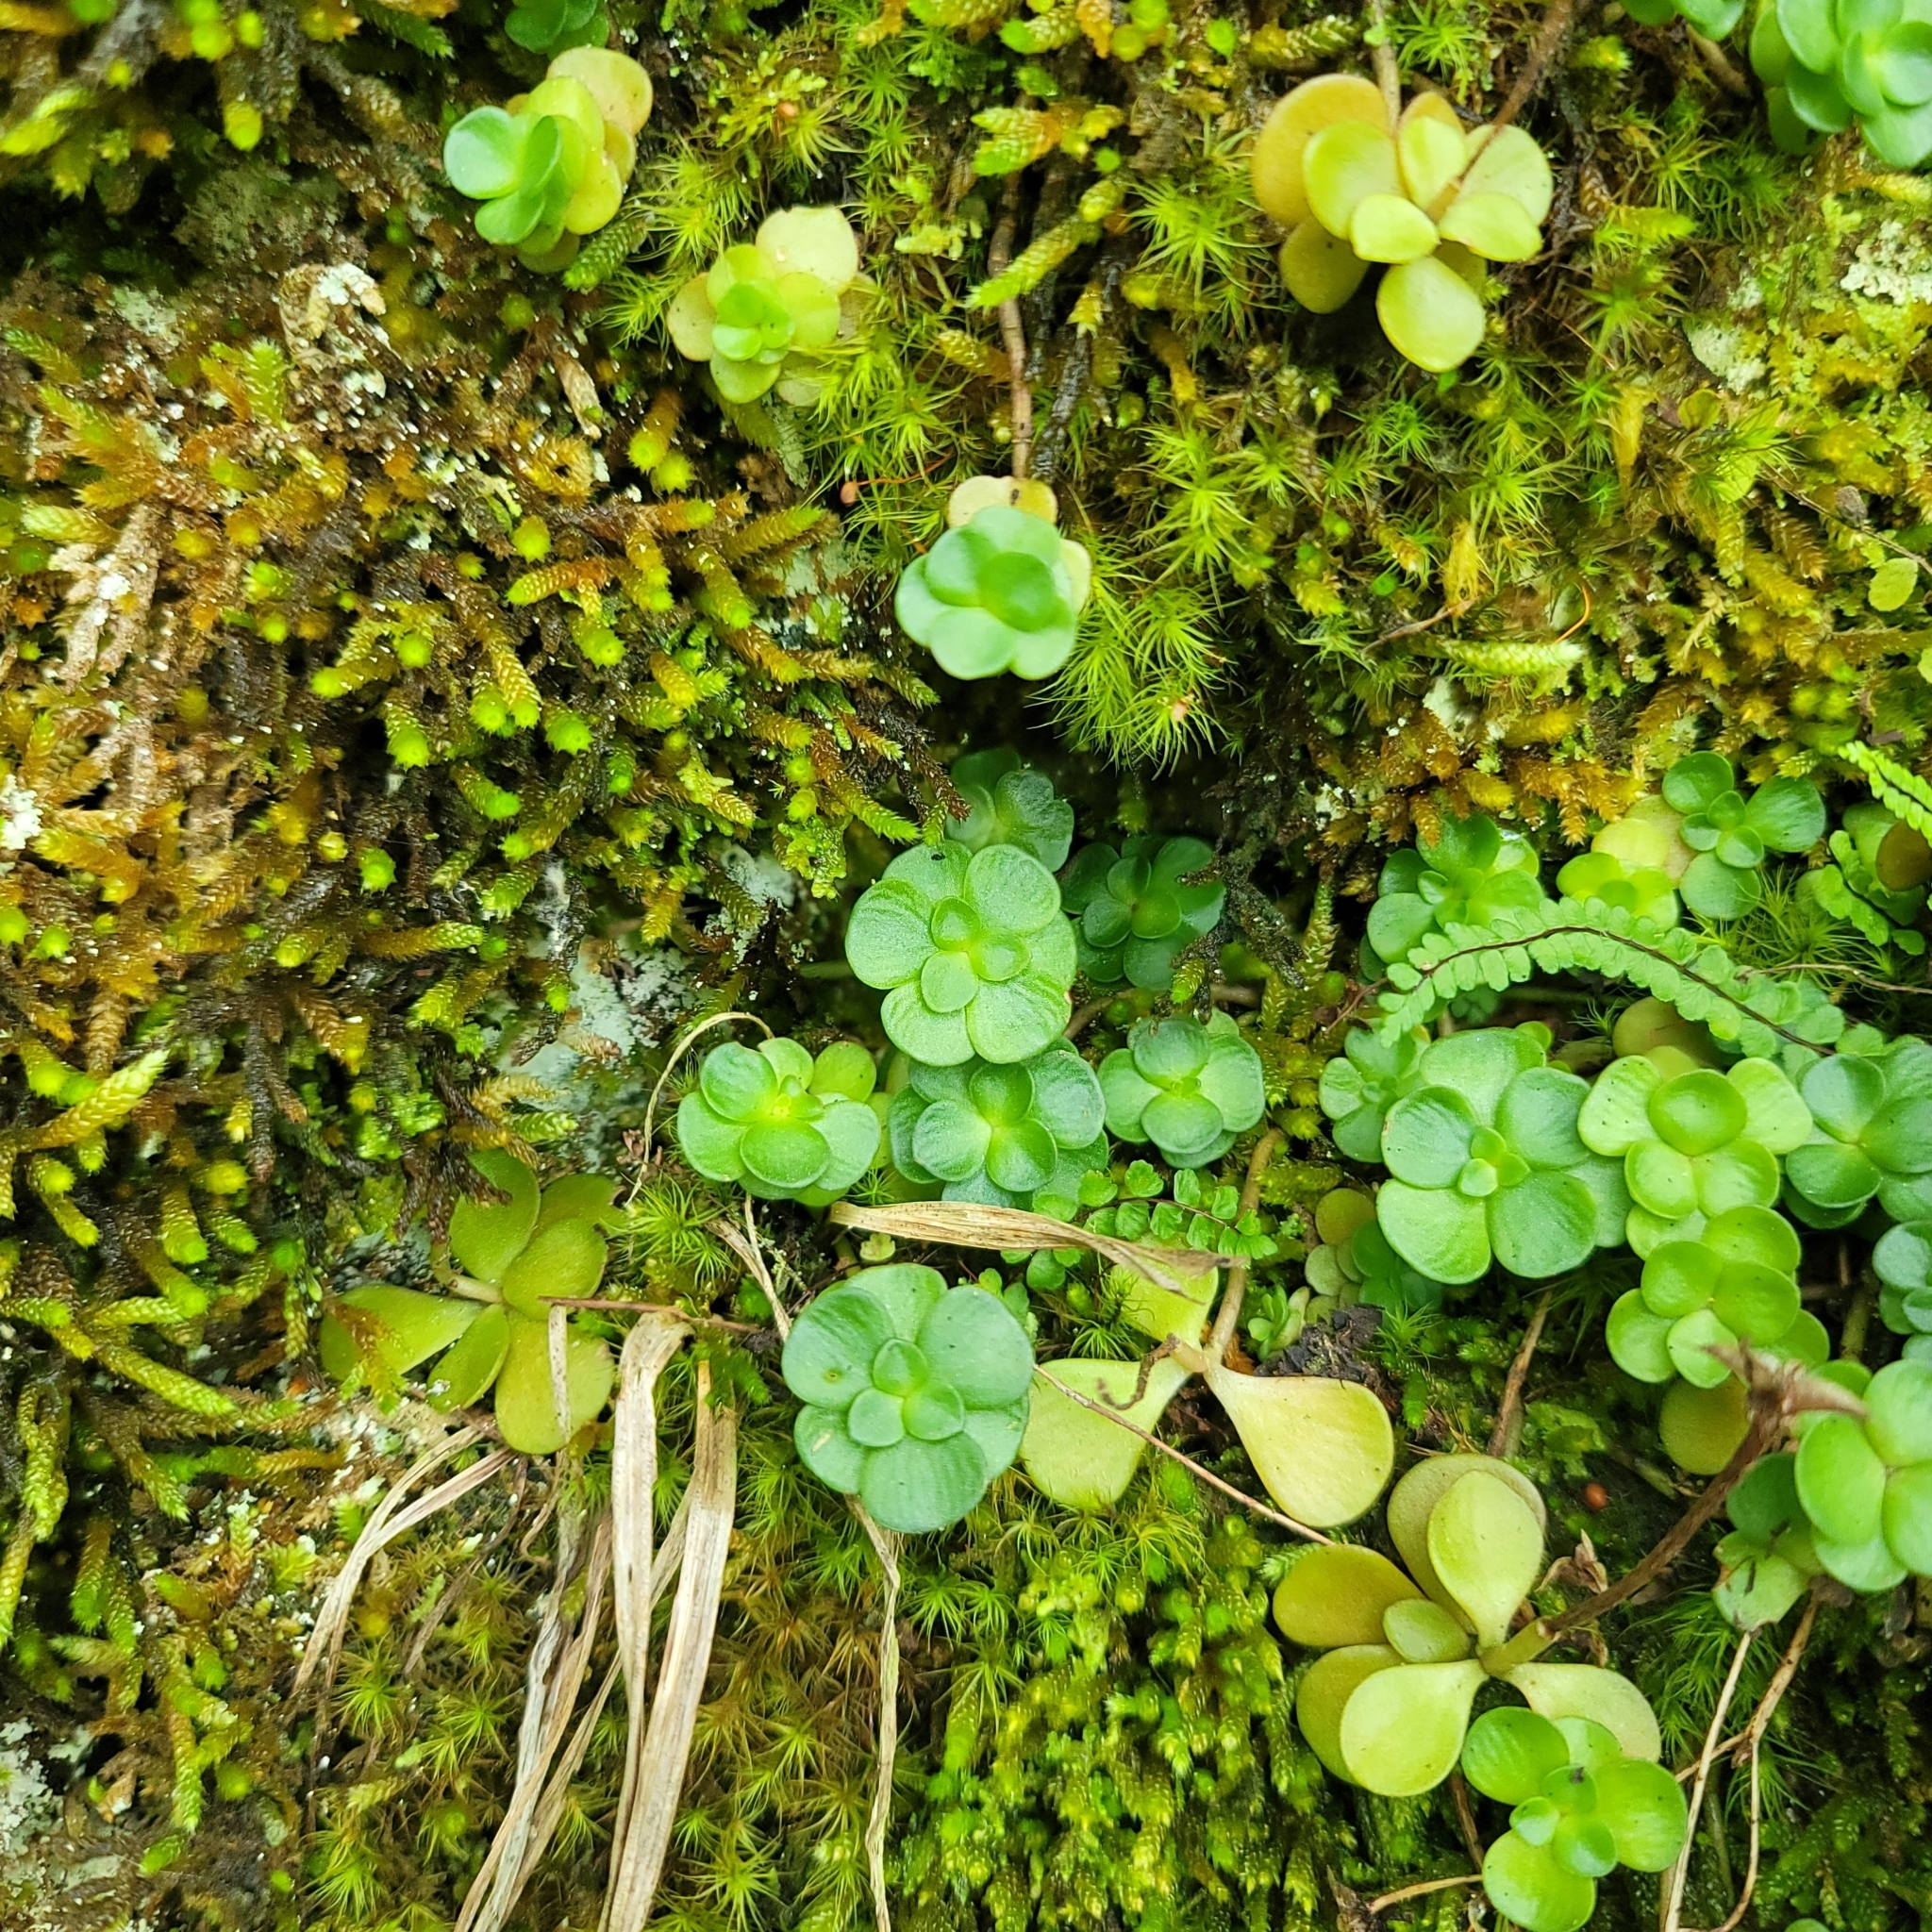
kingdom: Plantae
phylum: Tracheophyta
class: Magnoliopsida
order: Saxifragales
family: Crassulaceae
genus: Sedum
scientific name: Sedum ternatum
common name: Wild stonecrop
